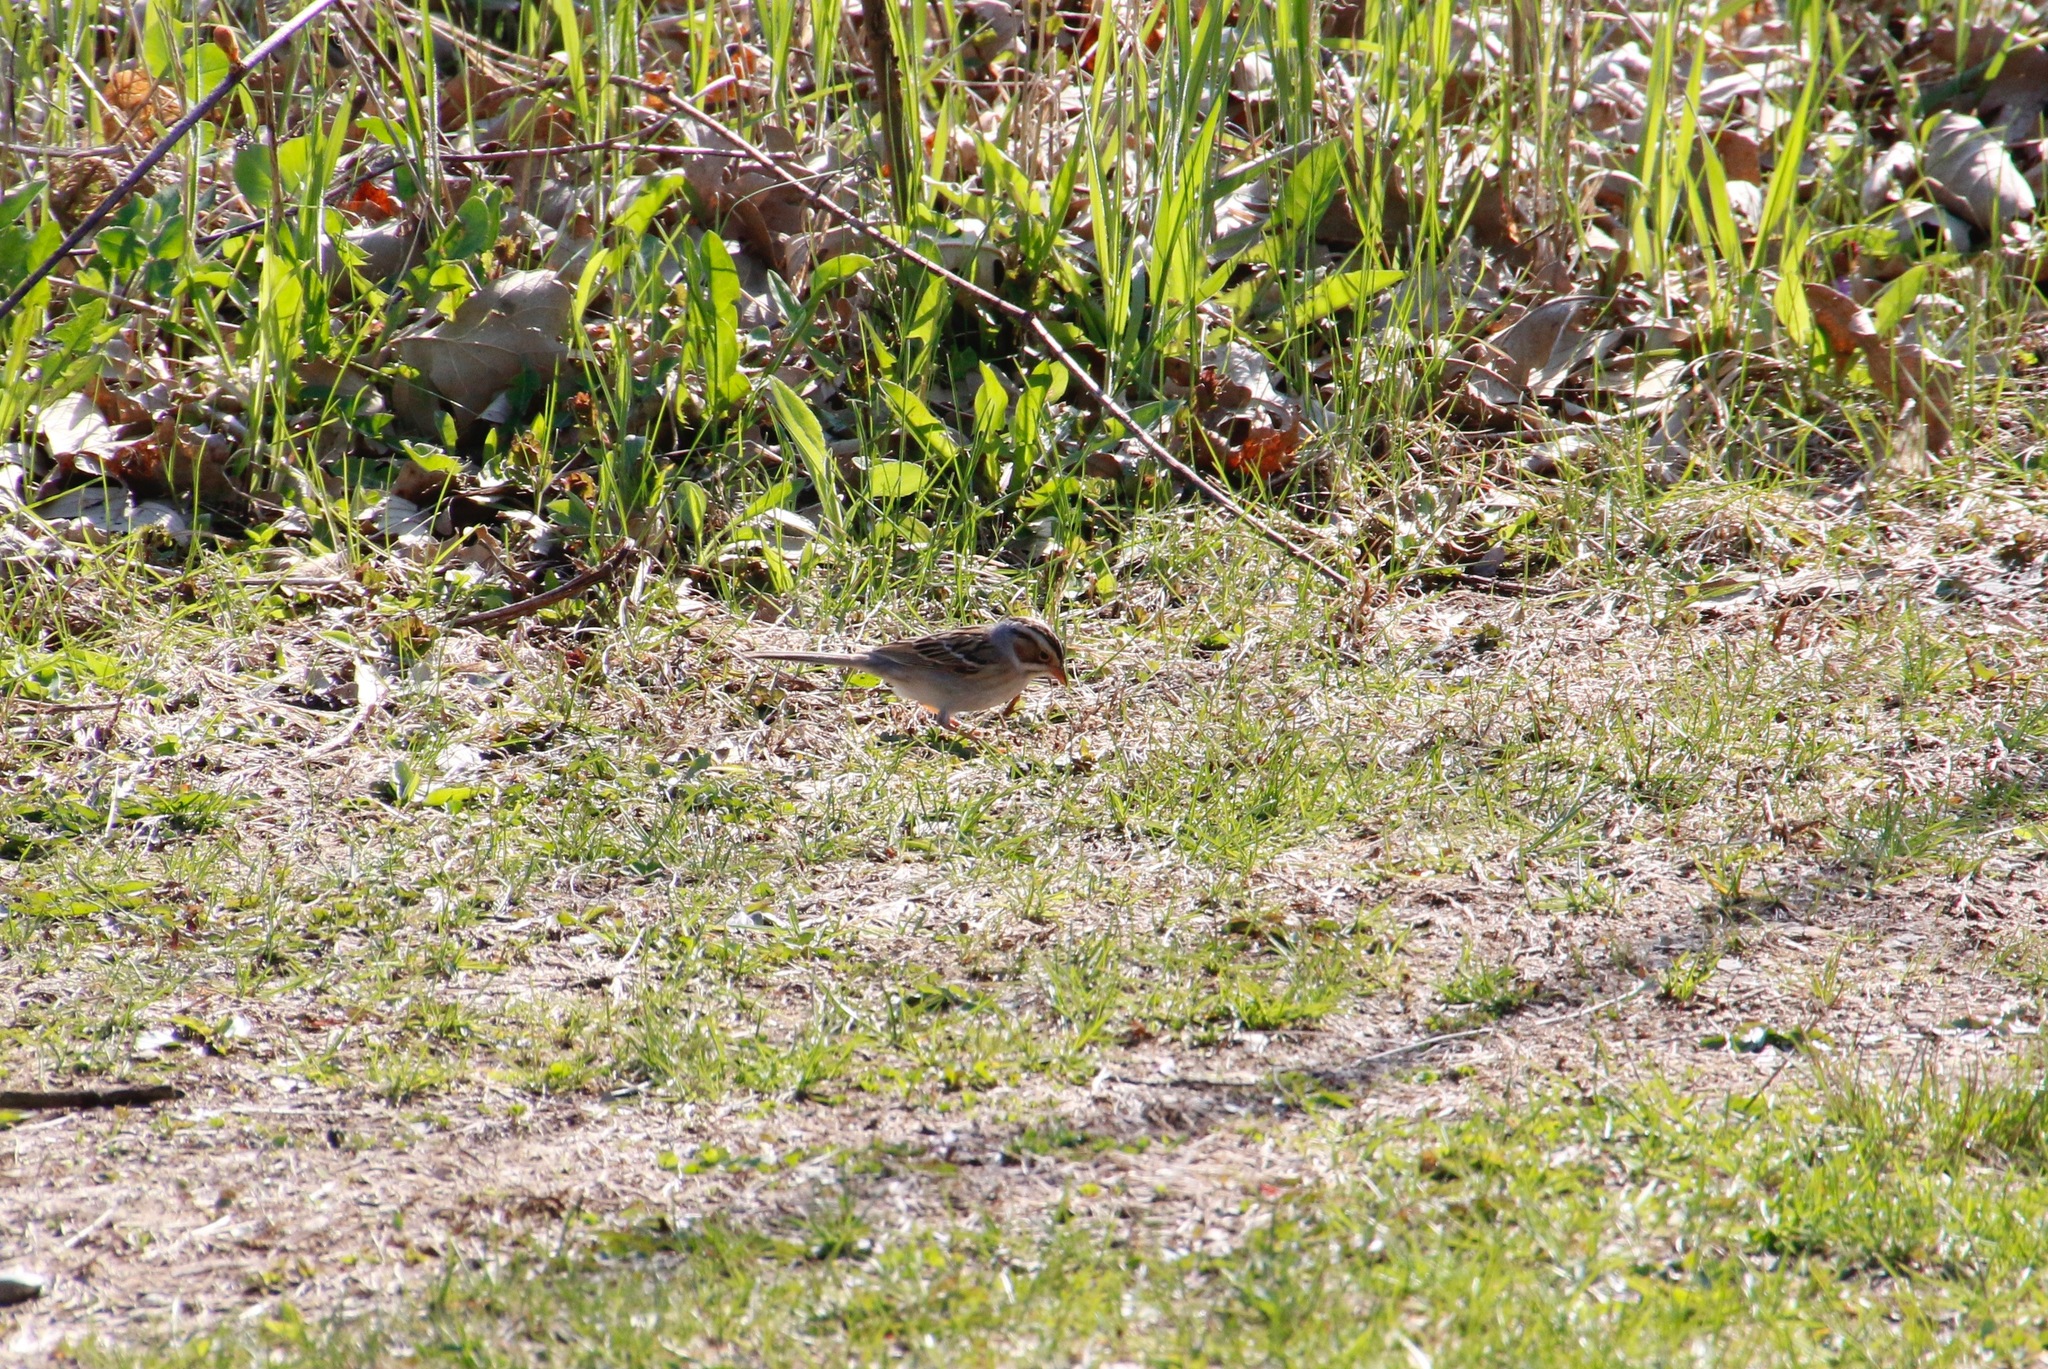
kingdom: Animalia
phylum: Chordata
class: Aves
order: Passeriformes
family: Passerellidae
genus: Spizella
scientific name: Spizella pallida
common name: Clay-colored sparrow
